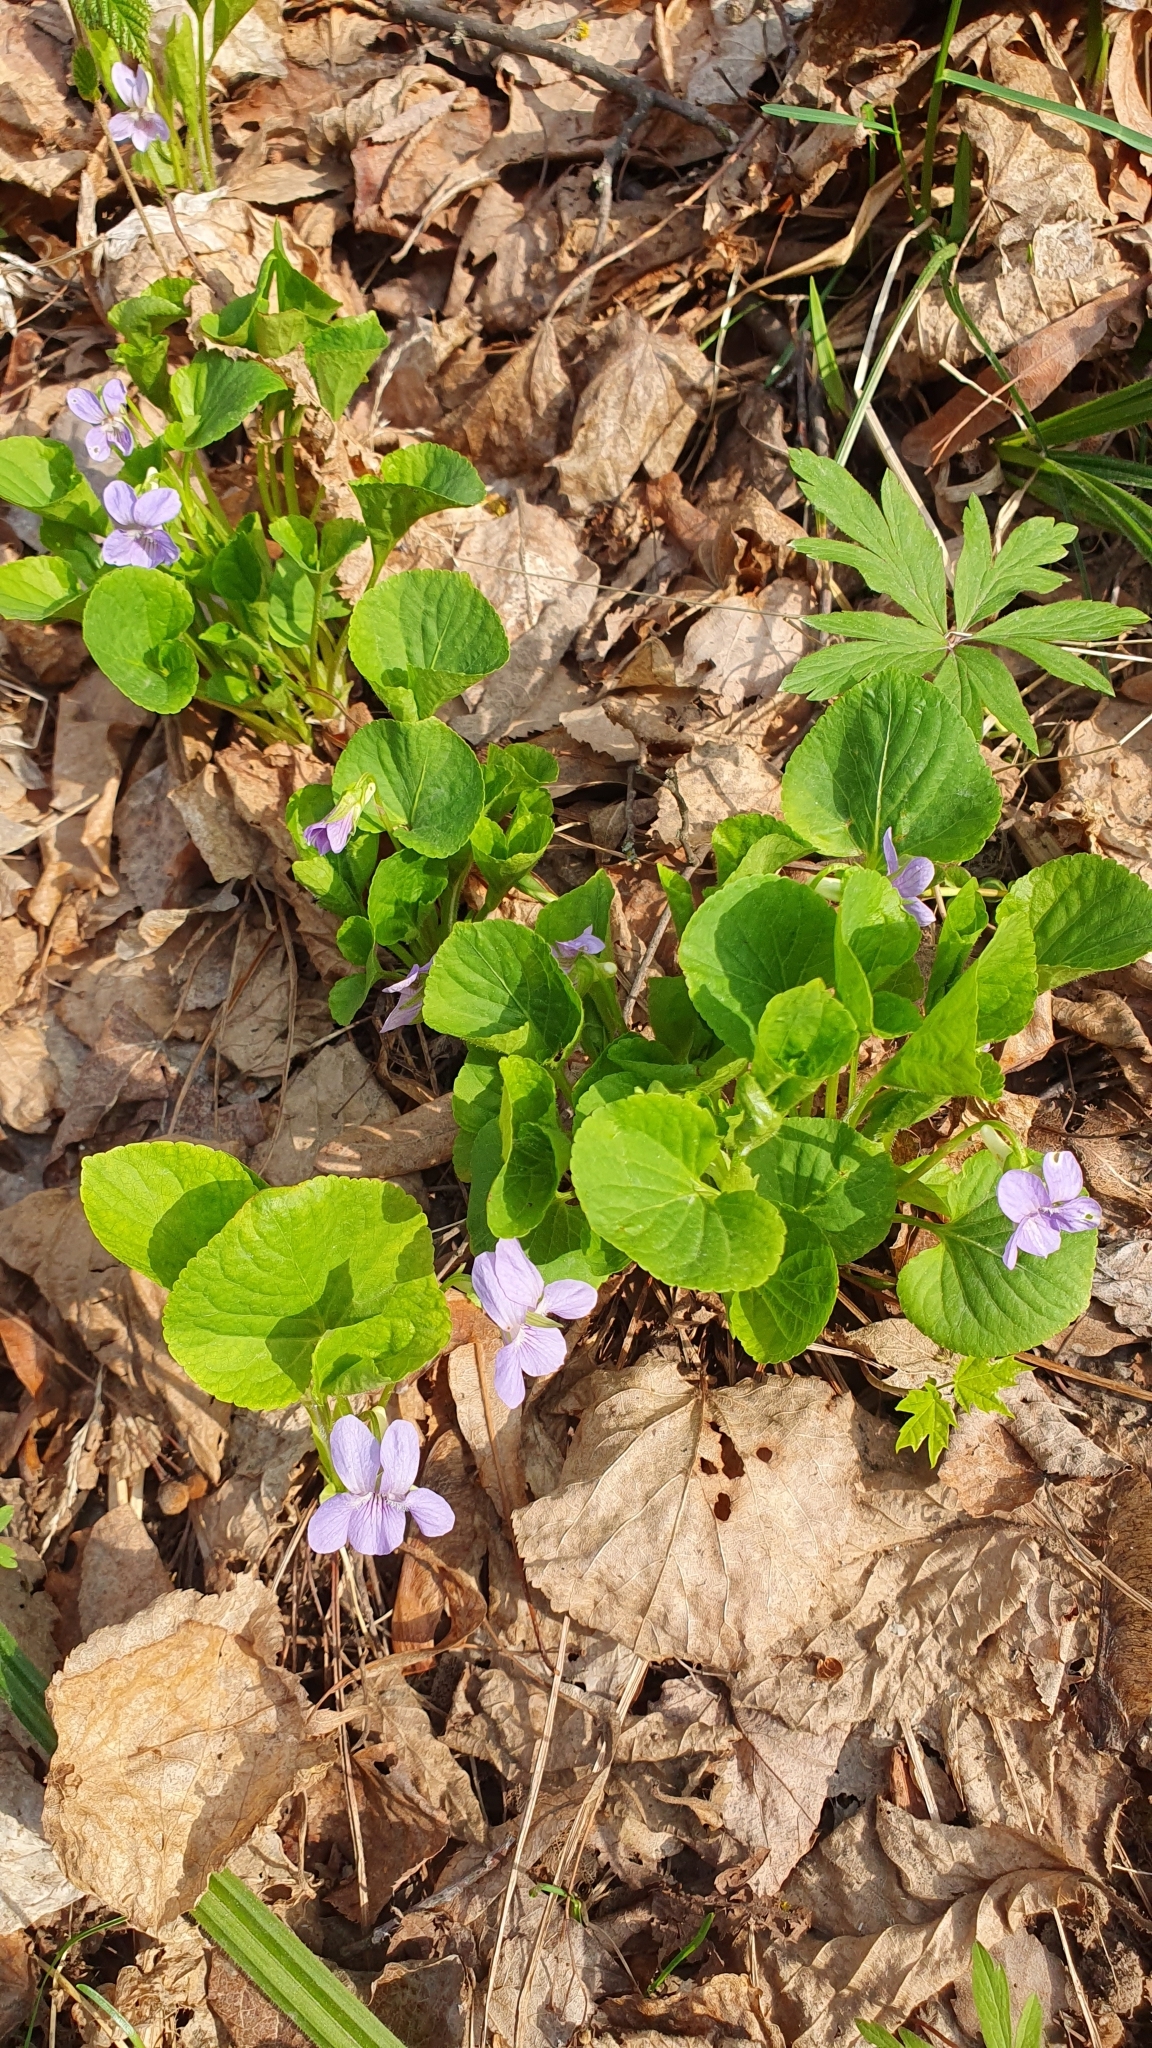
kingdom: Plantae
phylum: Tracheophyta
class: Magnoliopsida
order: Malpighiales
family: Violaceae
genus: Viola
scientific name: Viola mirabilis
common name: Wonder violet
